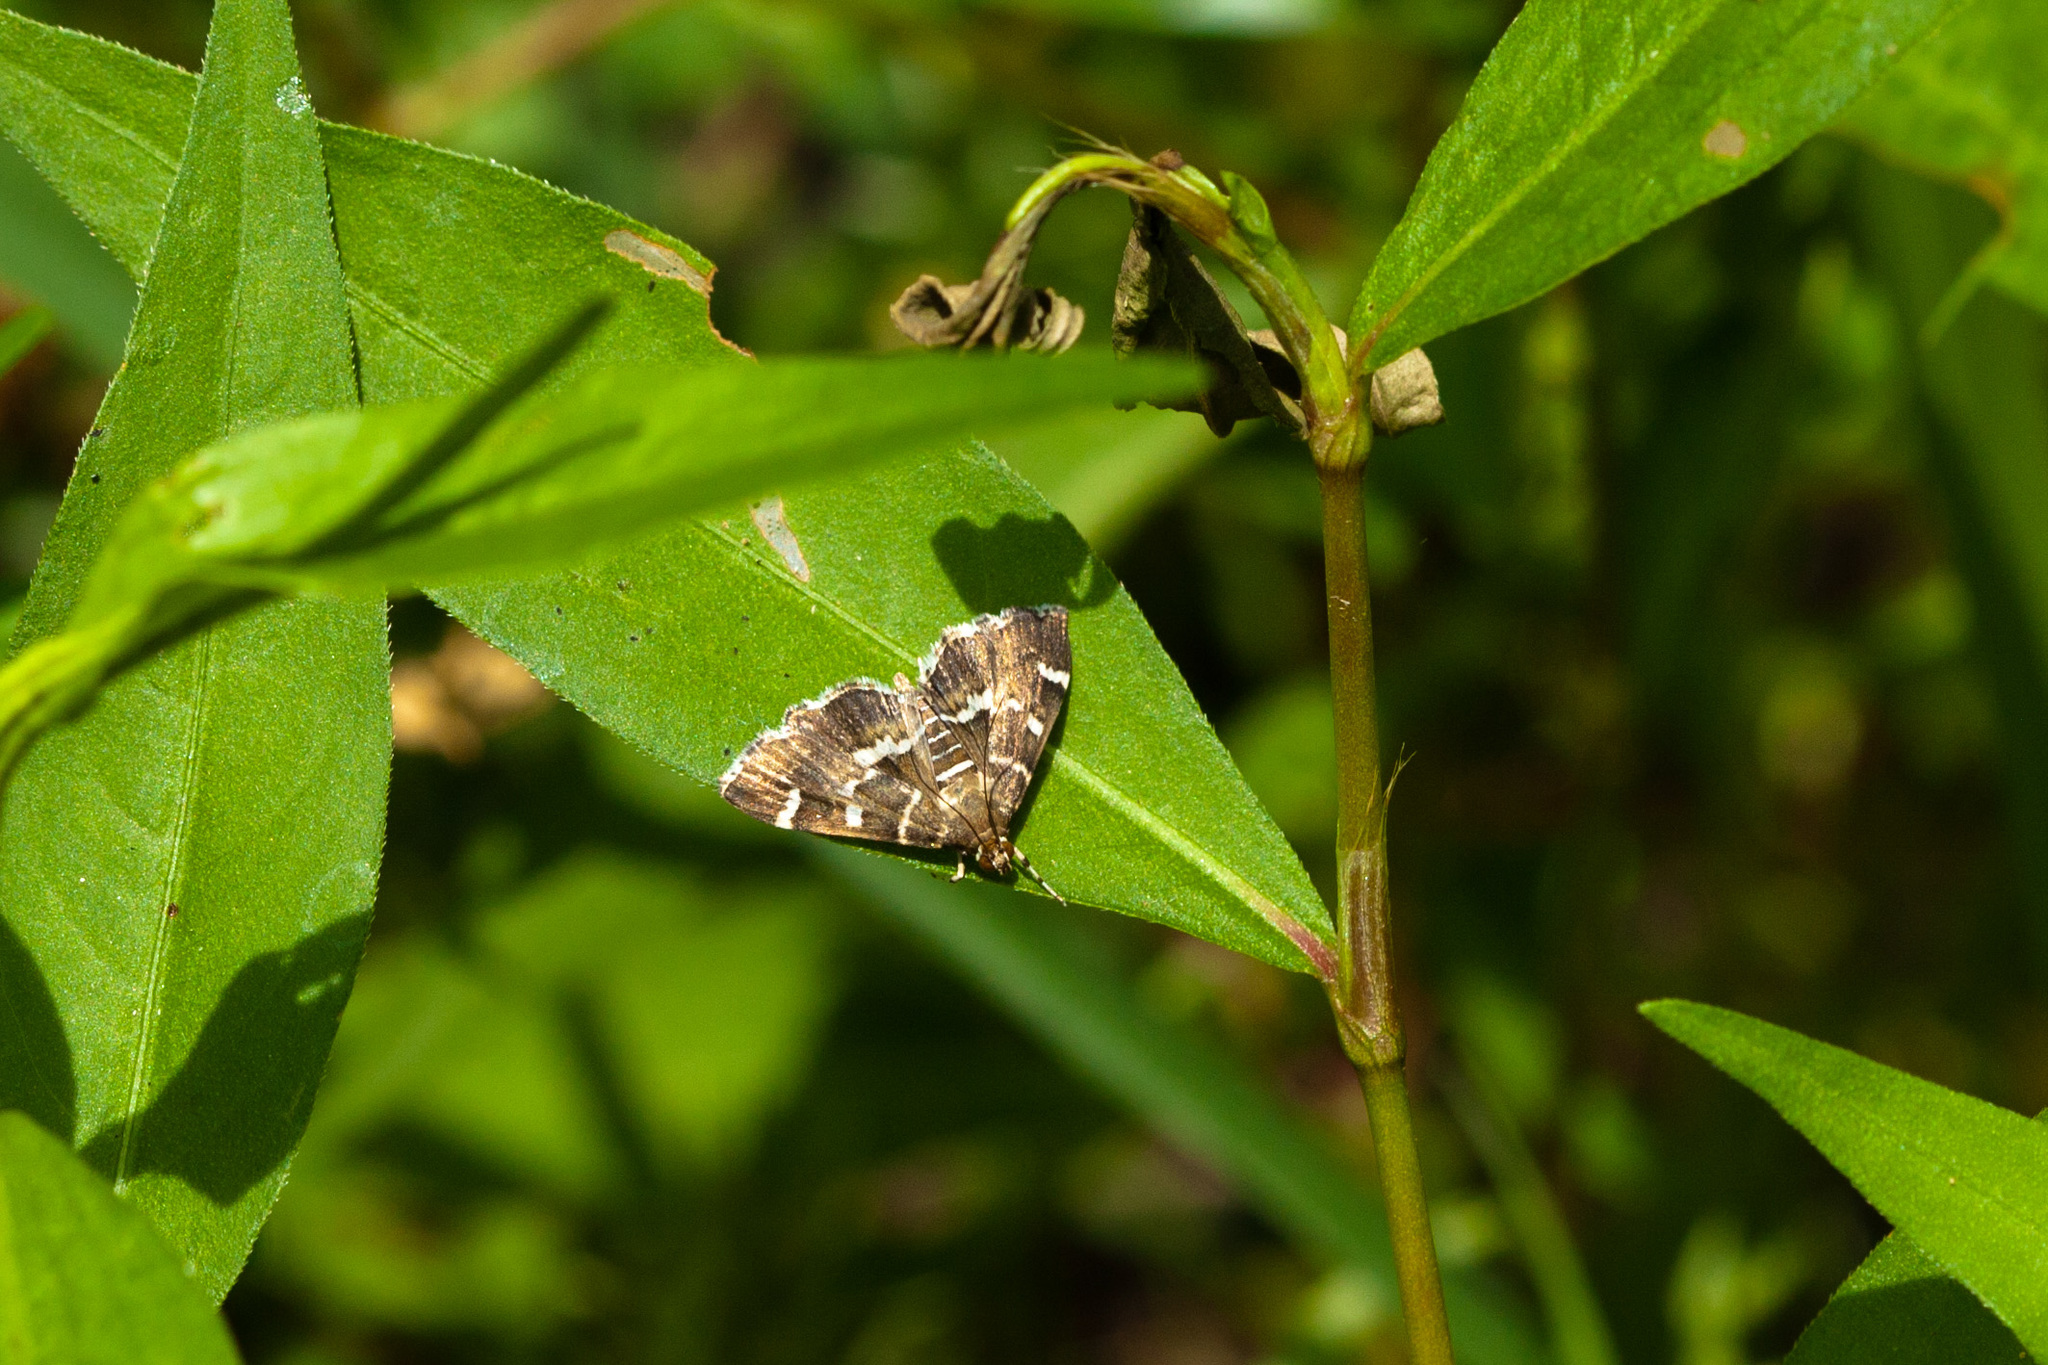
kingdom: Animalia
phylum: Arthropoda
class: Insecta
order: Lepidoptera
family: Crambidae
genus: Hymenia
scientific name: Hymenia perspectalis
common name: Spotted beet webworm
